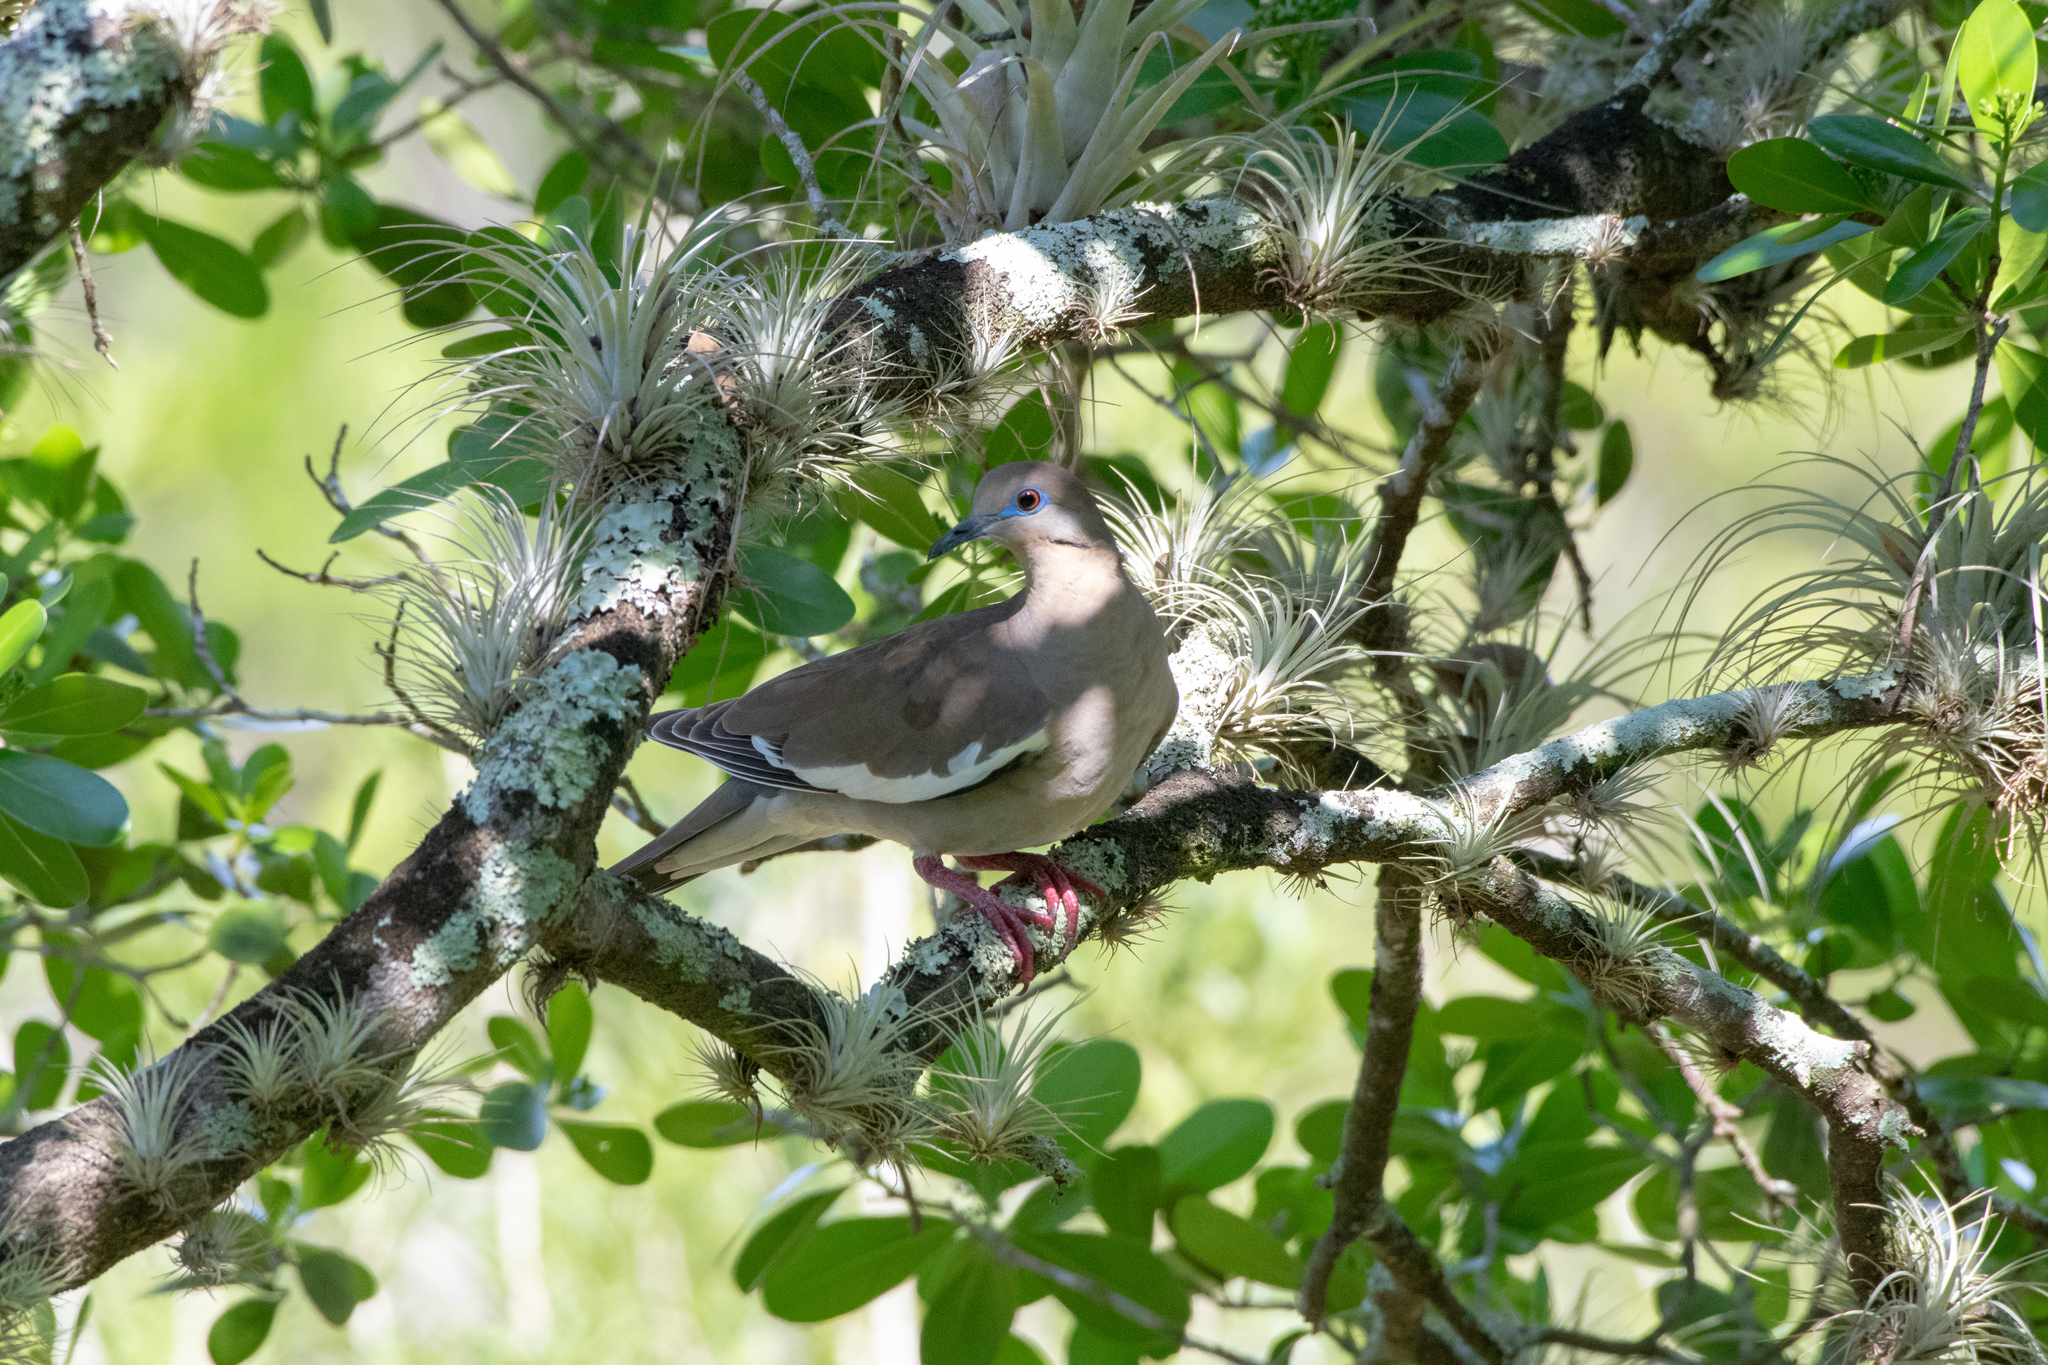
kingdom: Animalia
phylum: Chordata
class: Aves
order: Columbiformes
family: Columbidae
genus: Zenaida
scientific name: Zenaida asiatica
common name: White-winged dove
